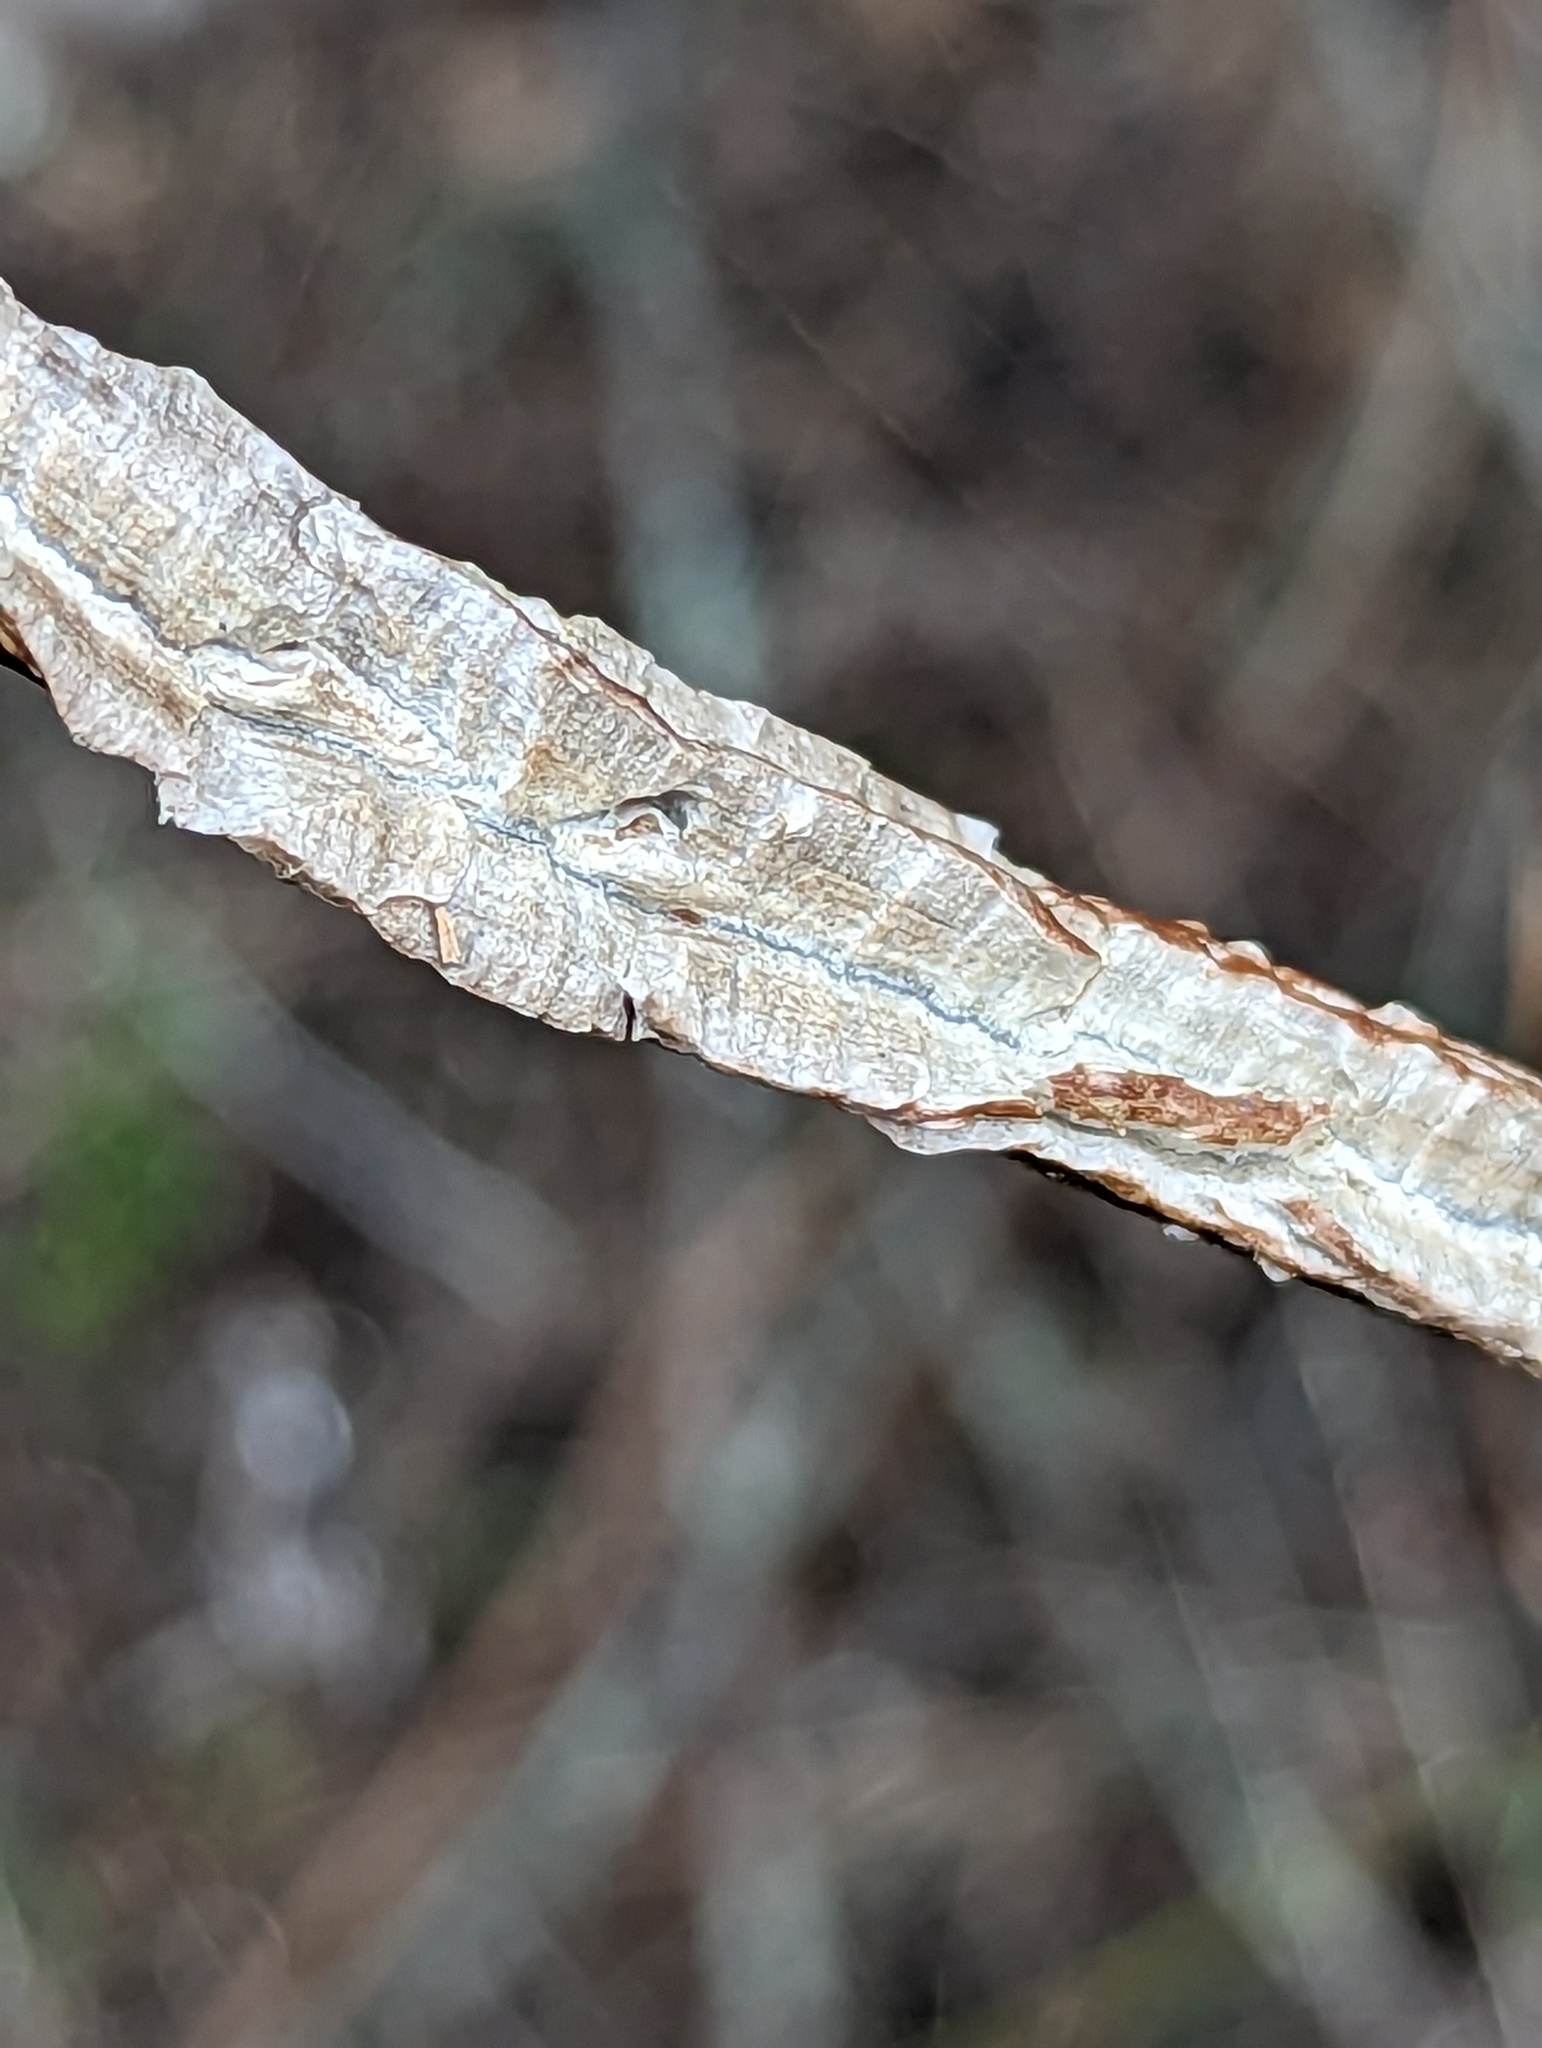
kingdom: Plantae
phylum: Tracheophyta
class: Magnoliopsida
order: Saxifragales
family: Altingiaceae
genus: Liquidambar
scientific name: Liquidambar styraciflua
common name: Sweet gum
